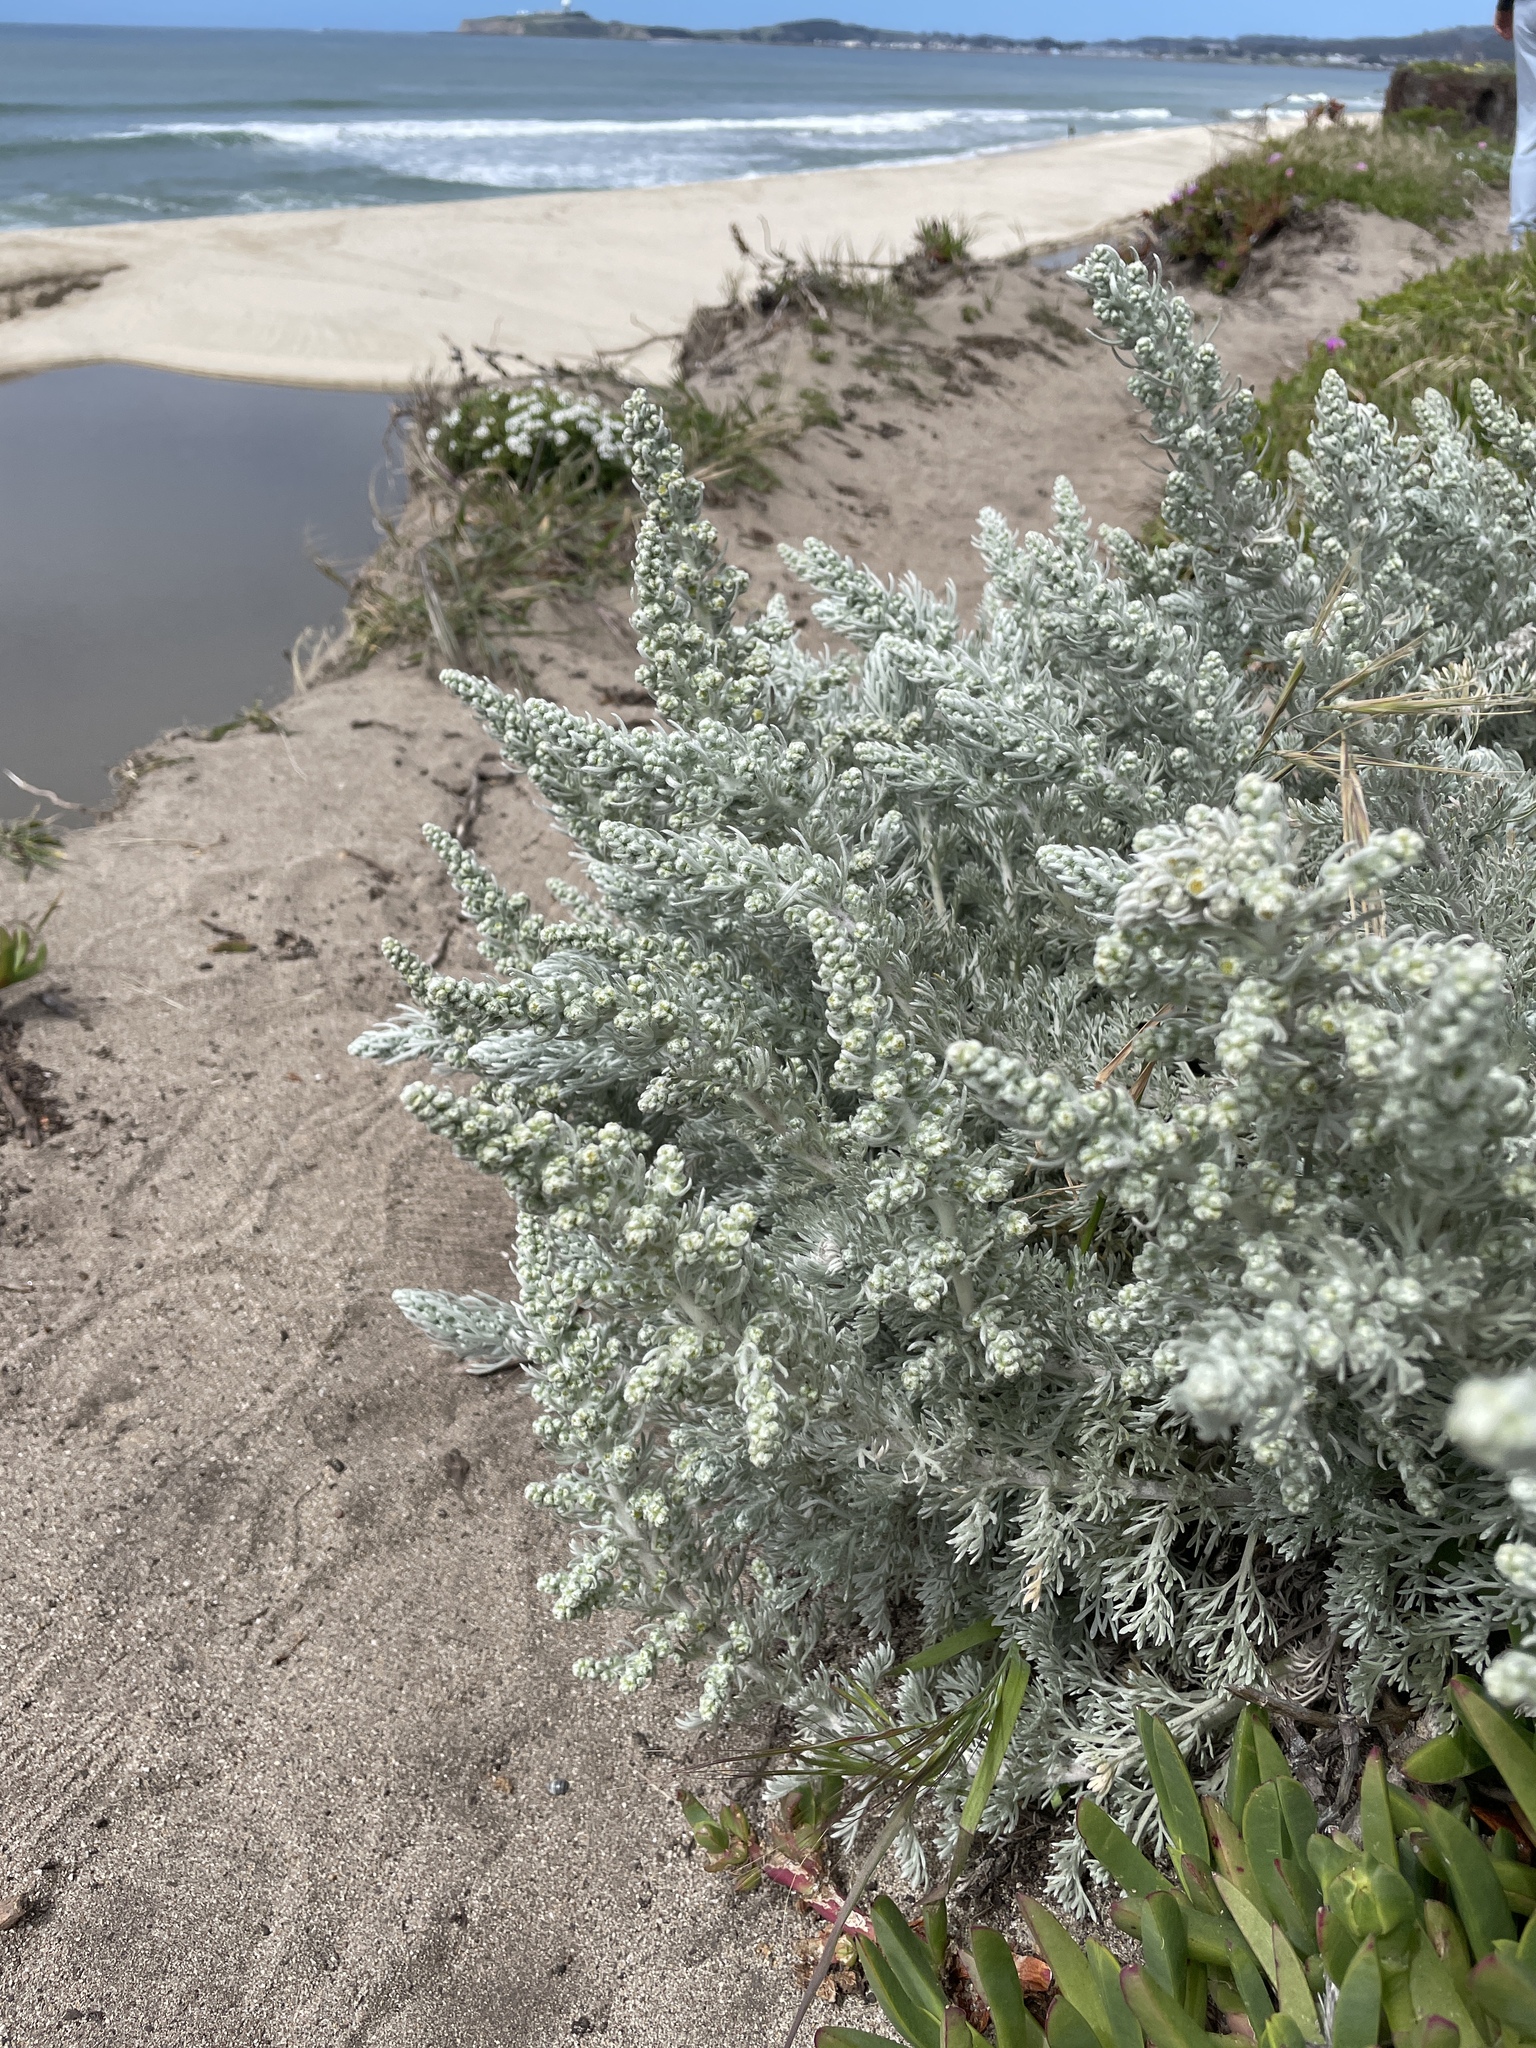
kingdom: Plantae
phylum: Tracheophyta
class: Magnoliopsida
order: Asterales
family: Asteraceae
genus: Artemisia
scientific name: Artemisia pycnocephala
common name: Coastal sagewort
